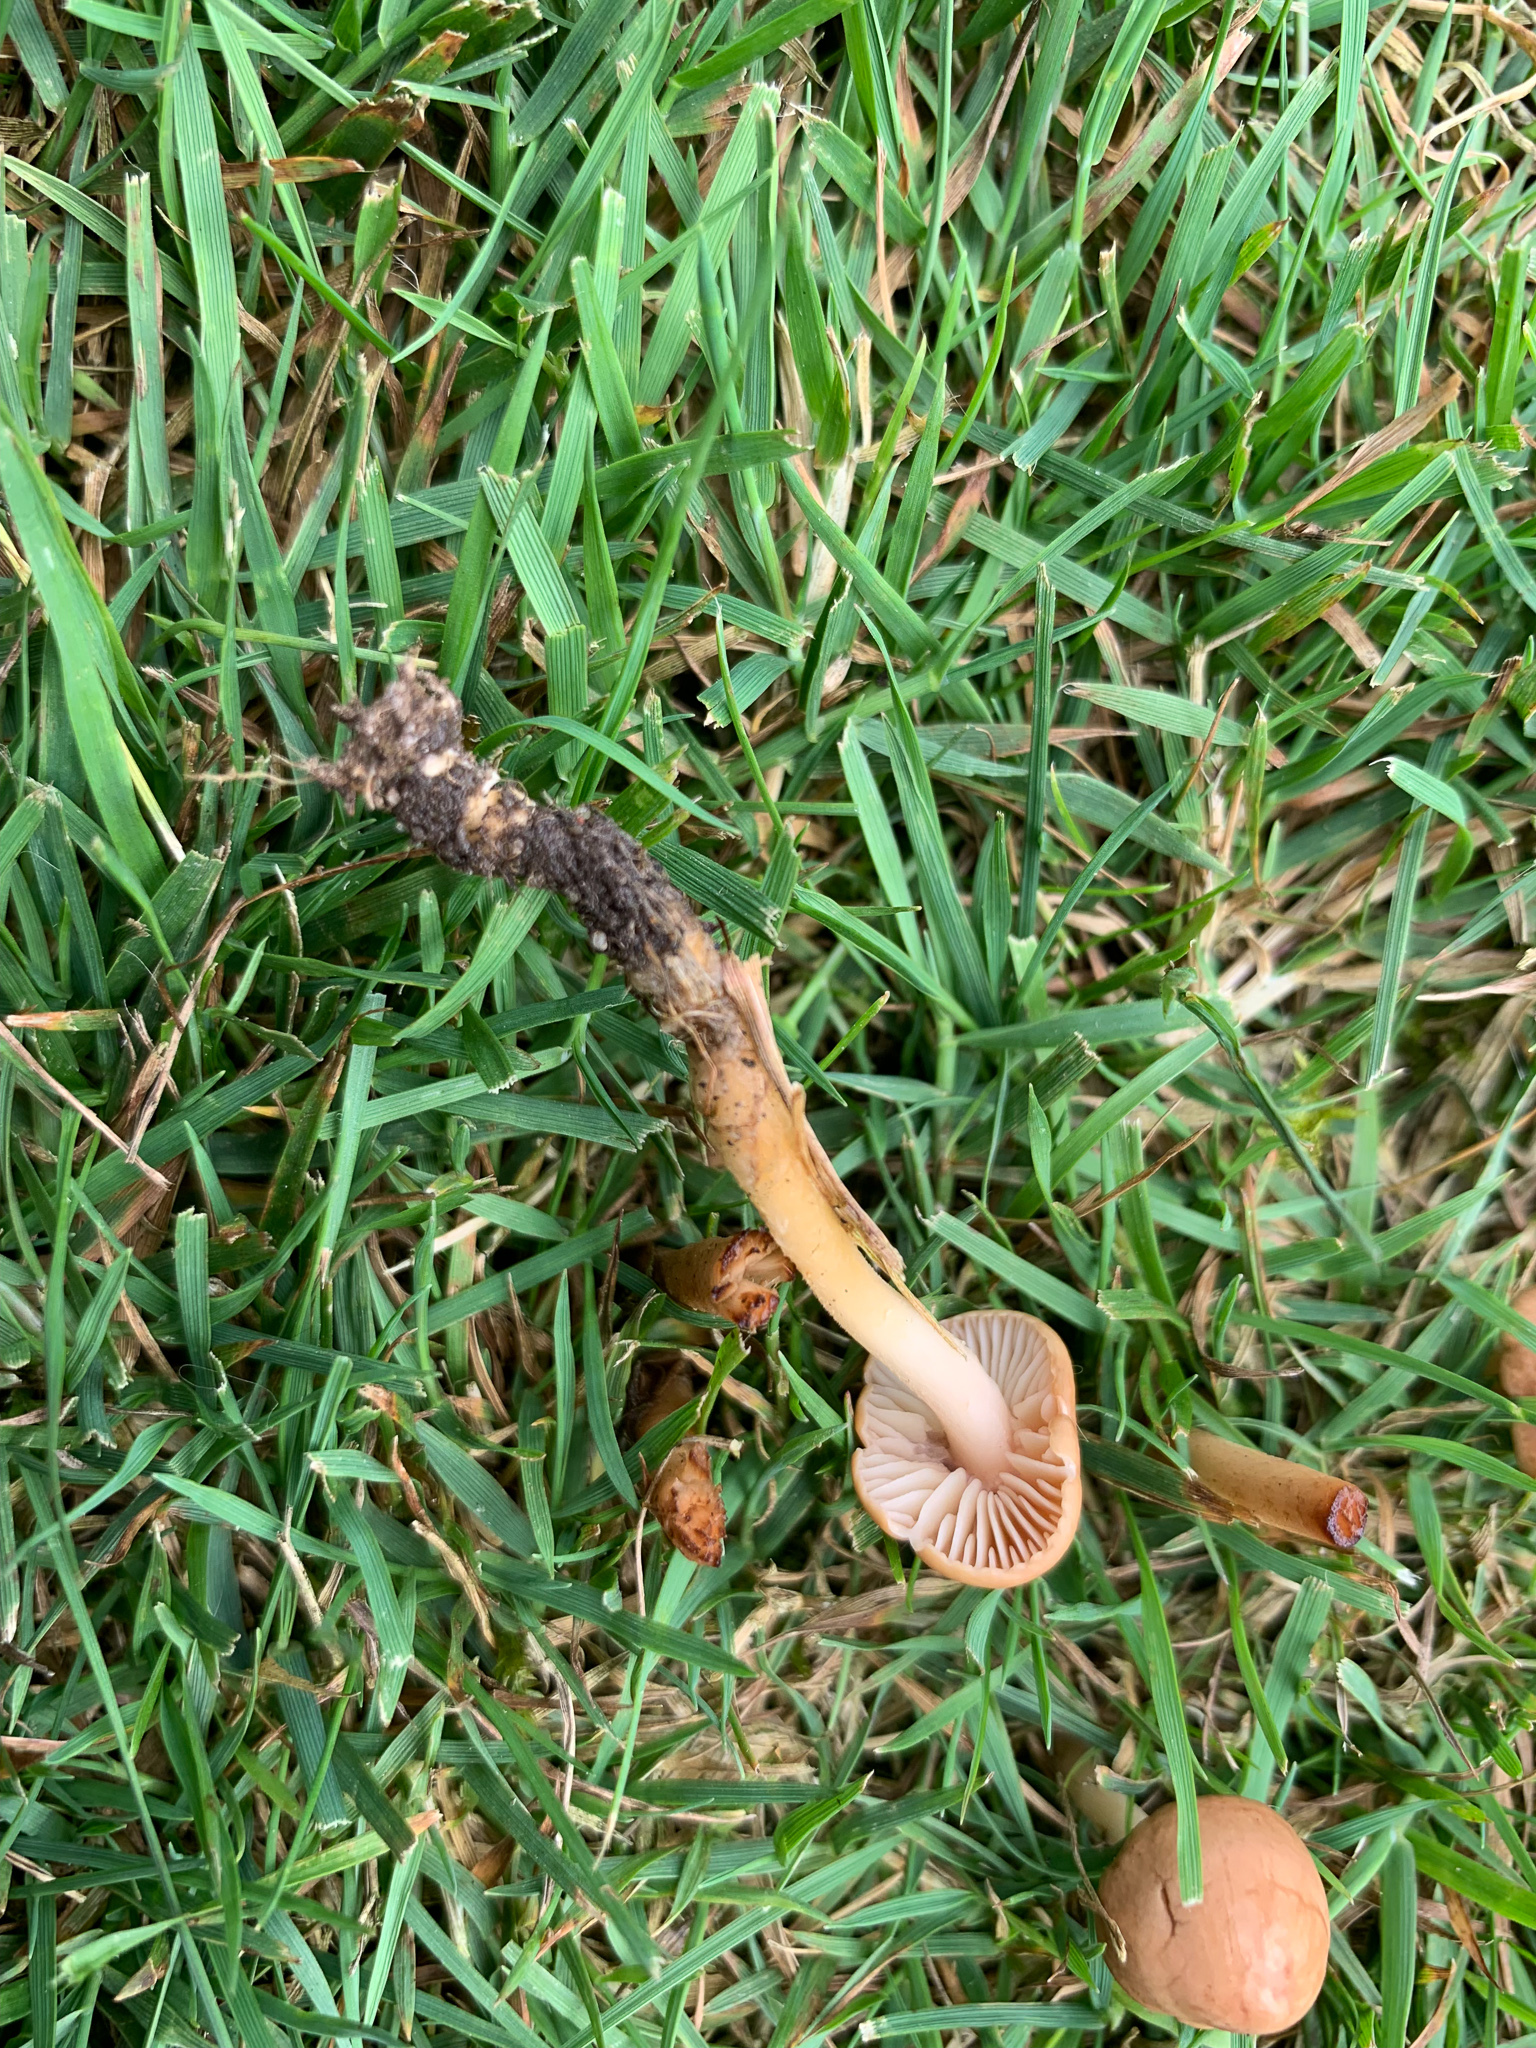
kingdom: Fungi
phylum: Basidiomycota
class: Agaricomycetes
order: Agaricales
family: Marasmiaceae
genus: Marasmius
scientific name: Marasmius oreades
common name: Fairy ring champignon
